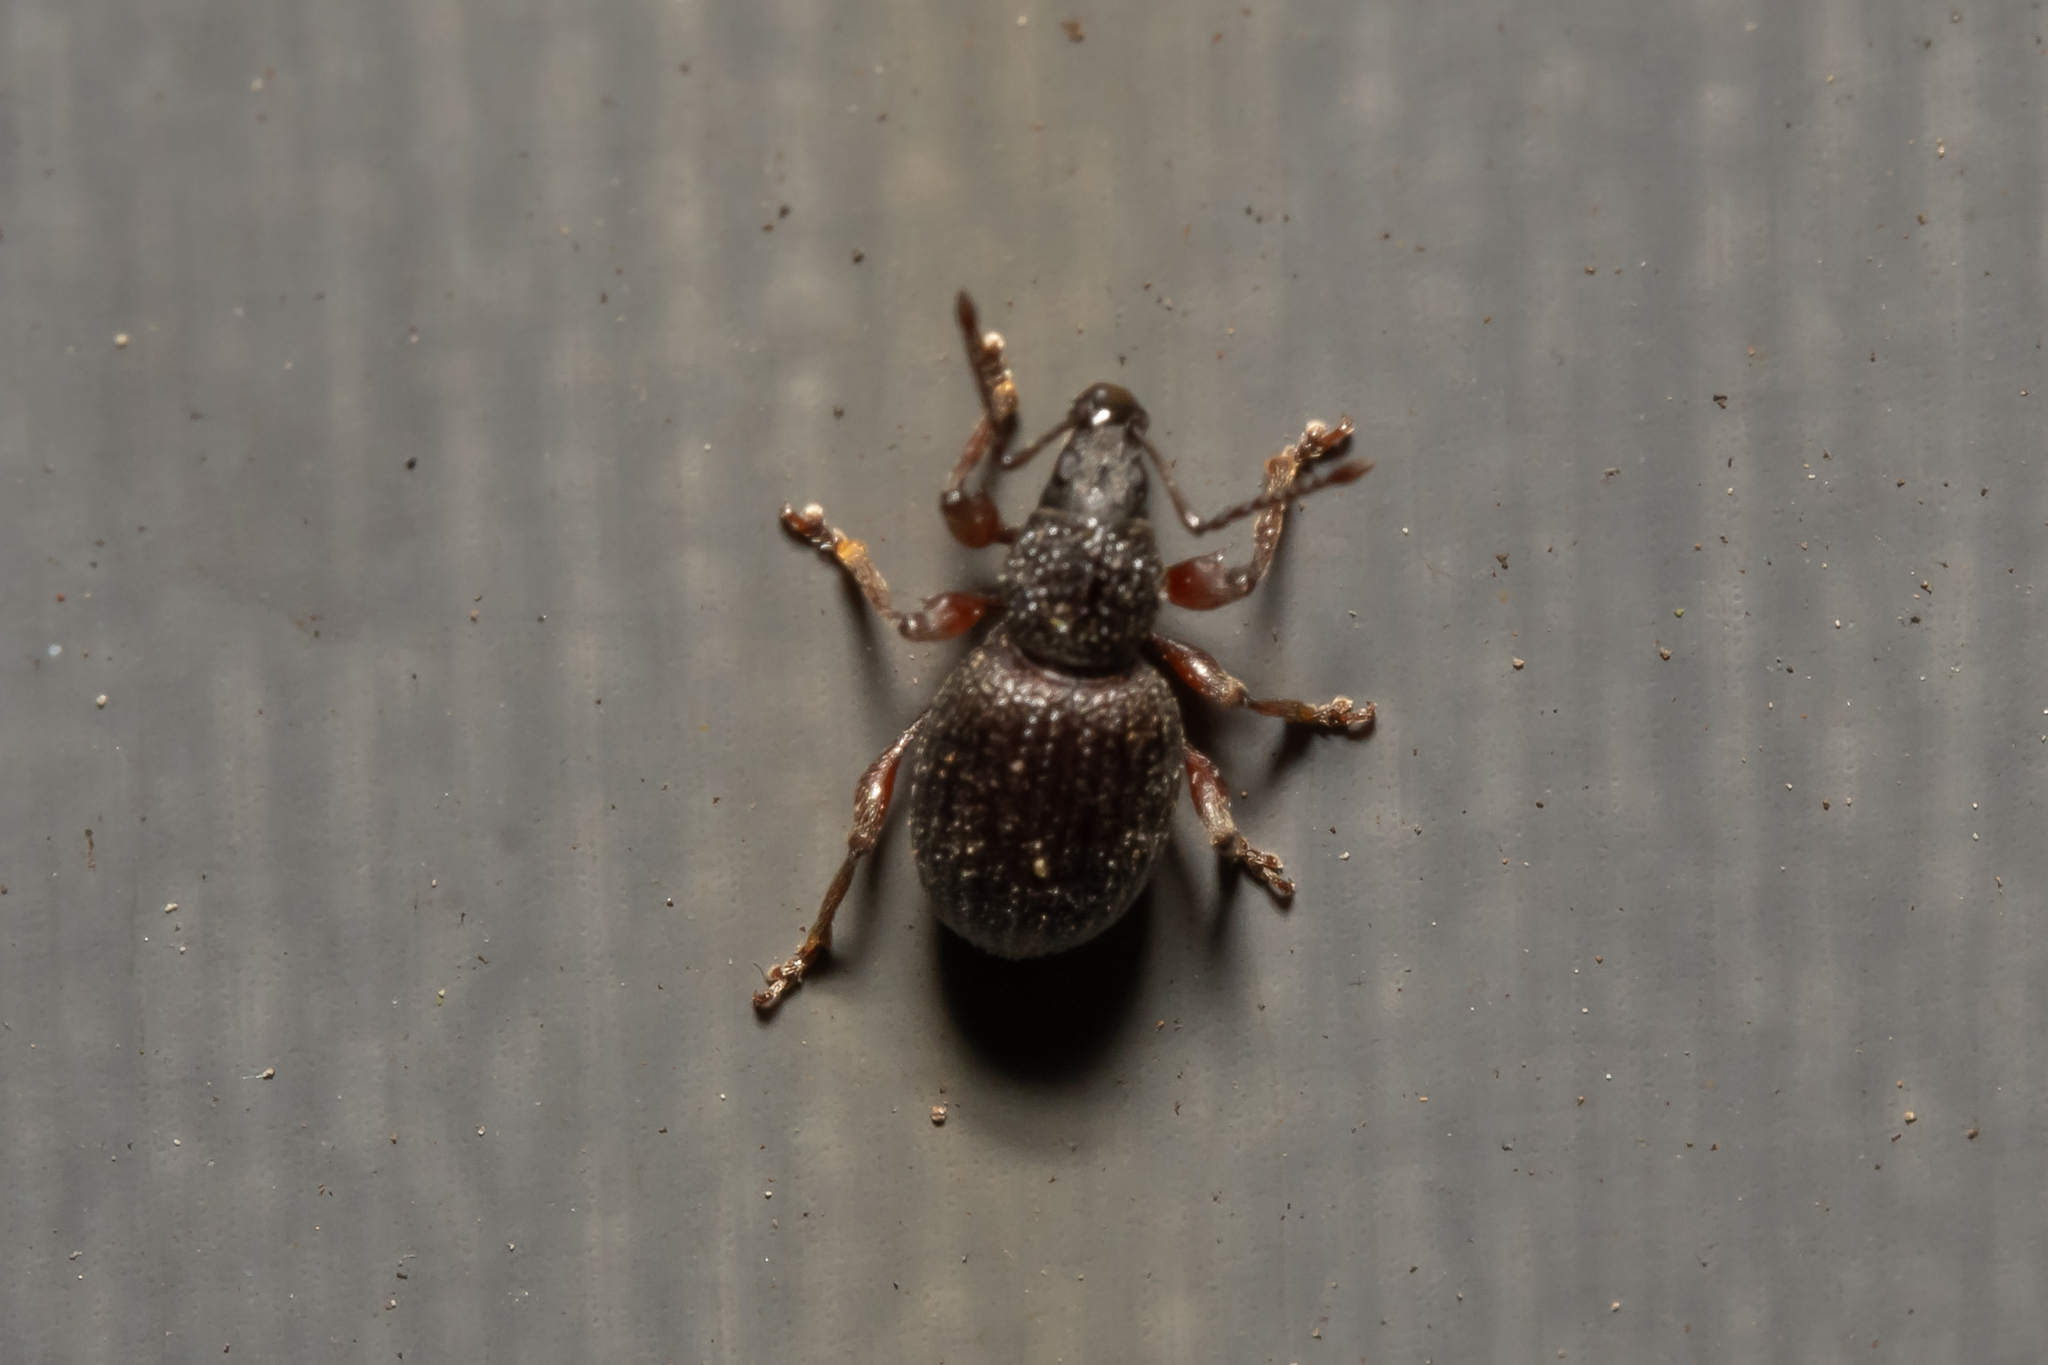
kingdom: Animalia
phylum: Arthropoda
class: Insecta
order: Coleoptera
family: Curculionidae
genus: Otiorhynchus
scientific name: Otiorhynchus ovatus
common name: Strawberry root weevil
